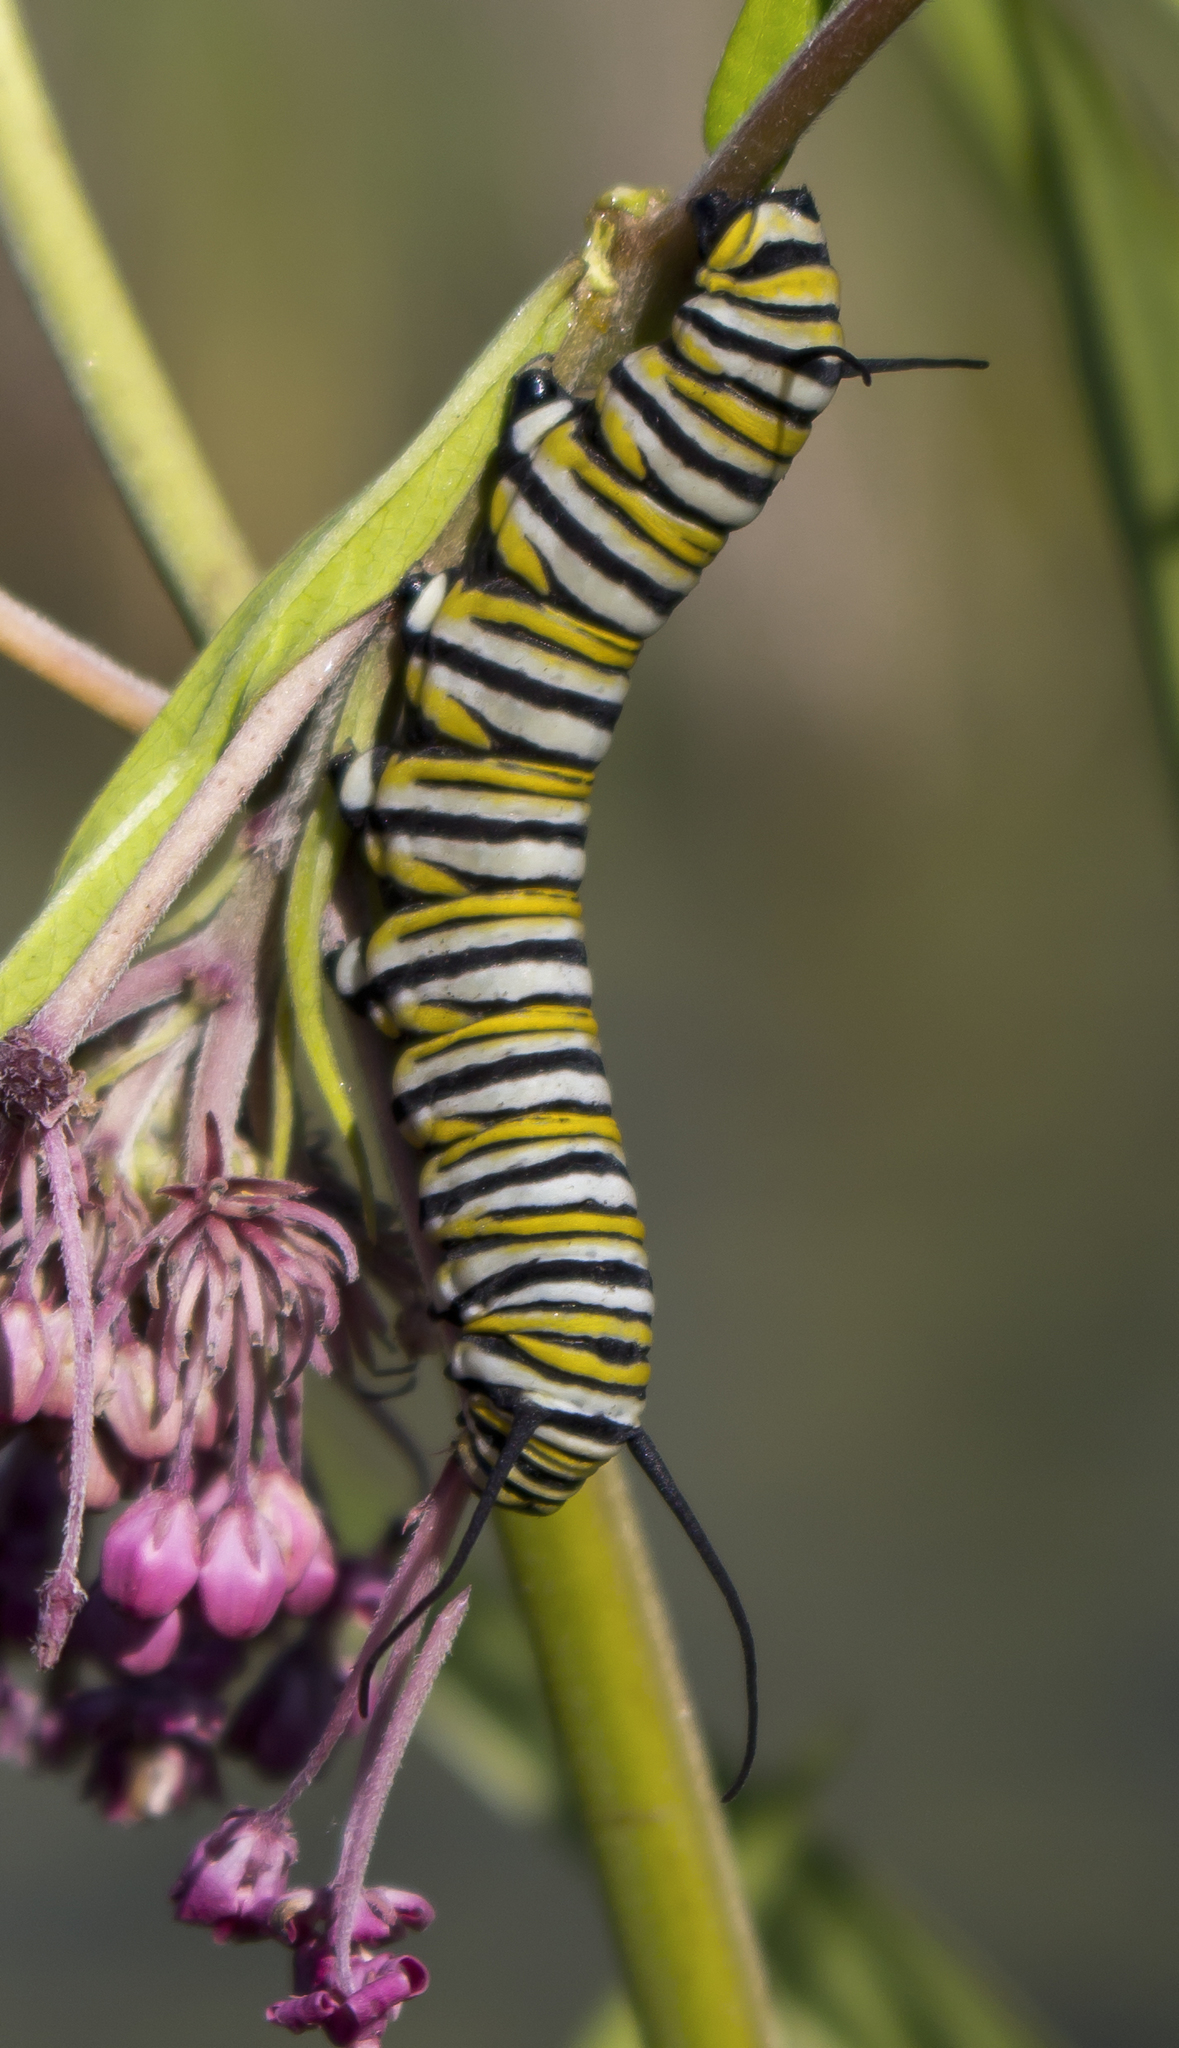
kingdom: Animalia
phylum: Arthropoda
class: Insecta
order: Lepidoptera
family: Nymphalidae
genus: Danaus
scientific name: Danaus plexippus
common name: Monarch
